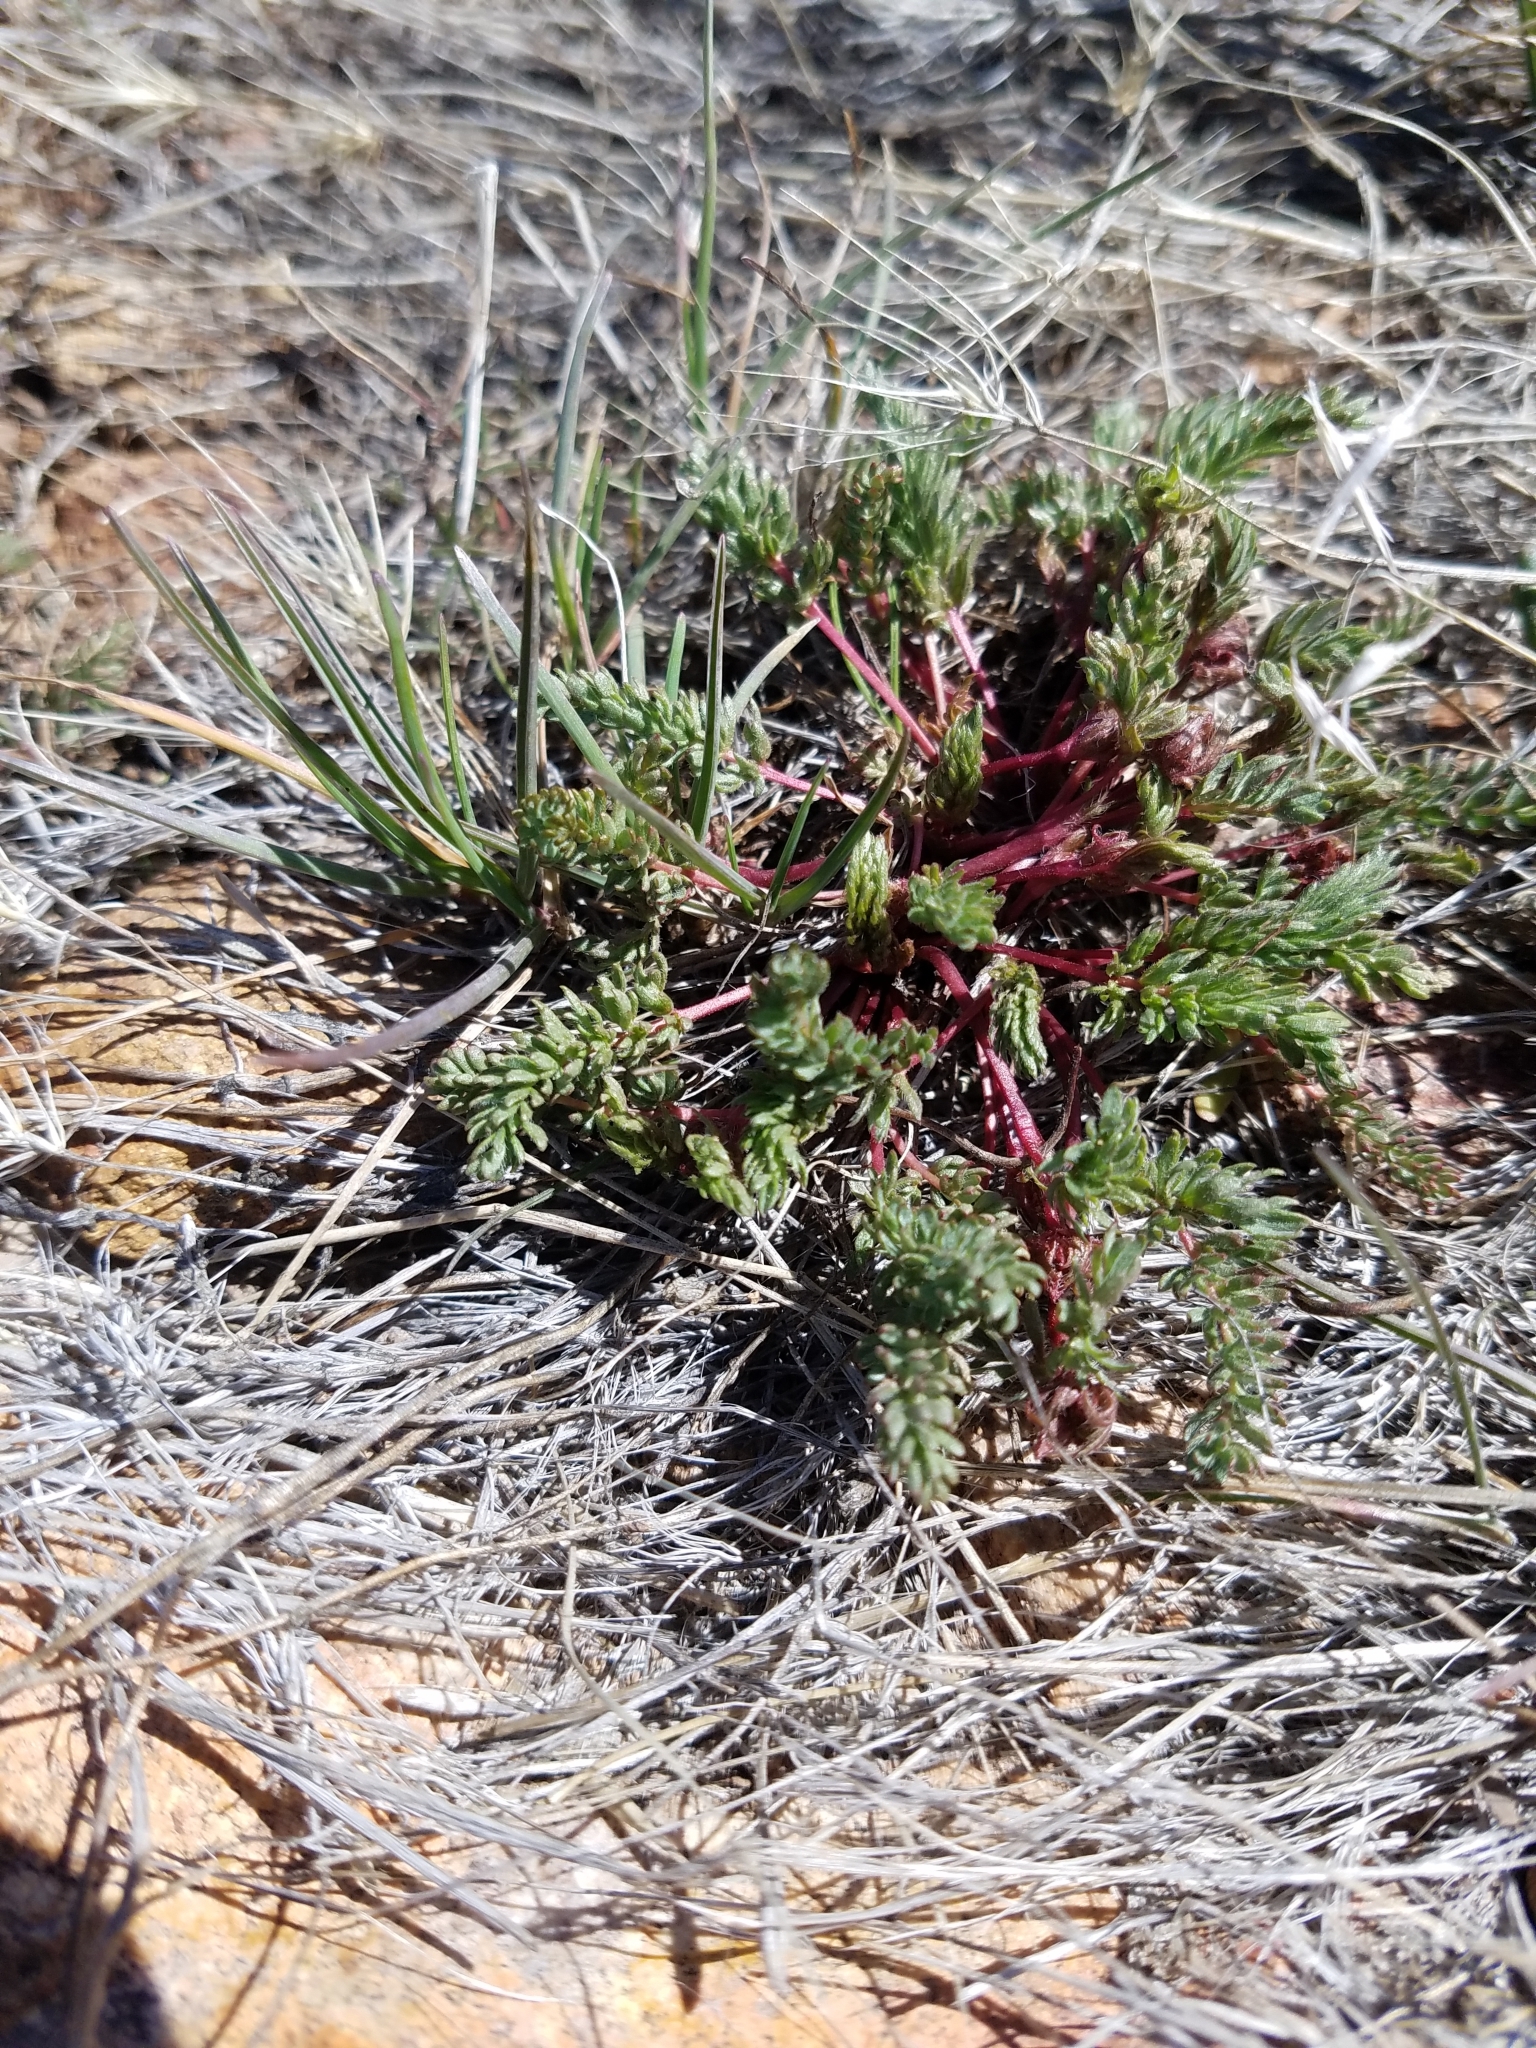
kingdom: Plantae
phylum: Tracheophyta
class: Magnoliopsida
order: Rosales
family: Rosaceae
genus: Potentilla
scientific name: Potentilla webberi
